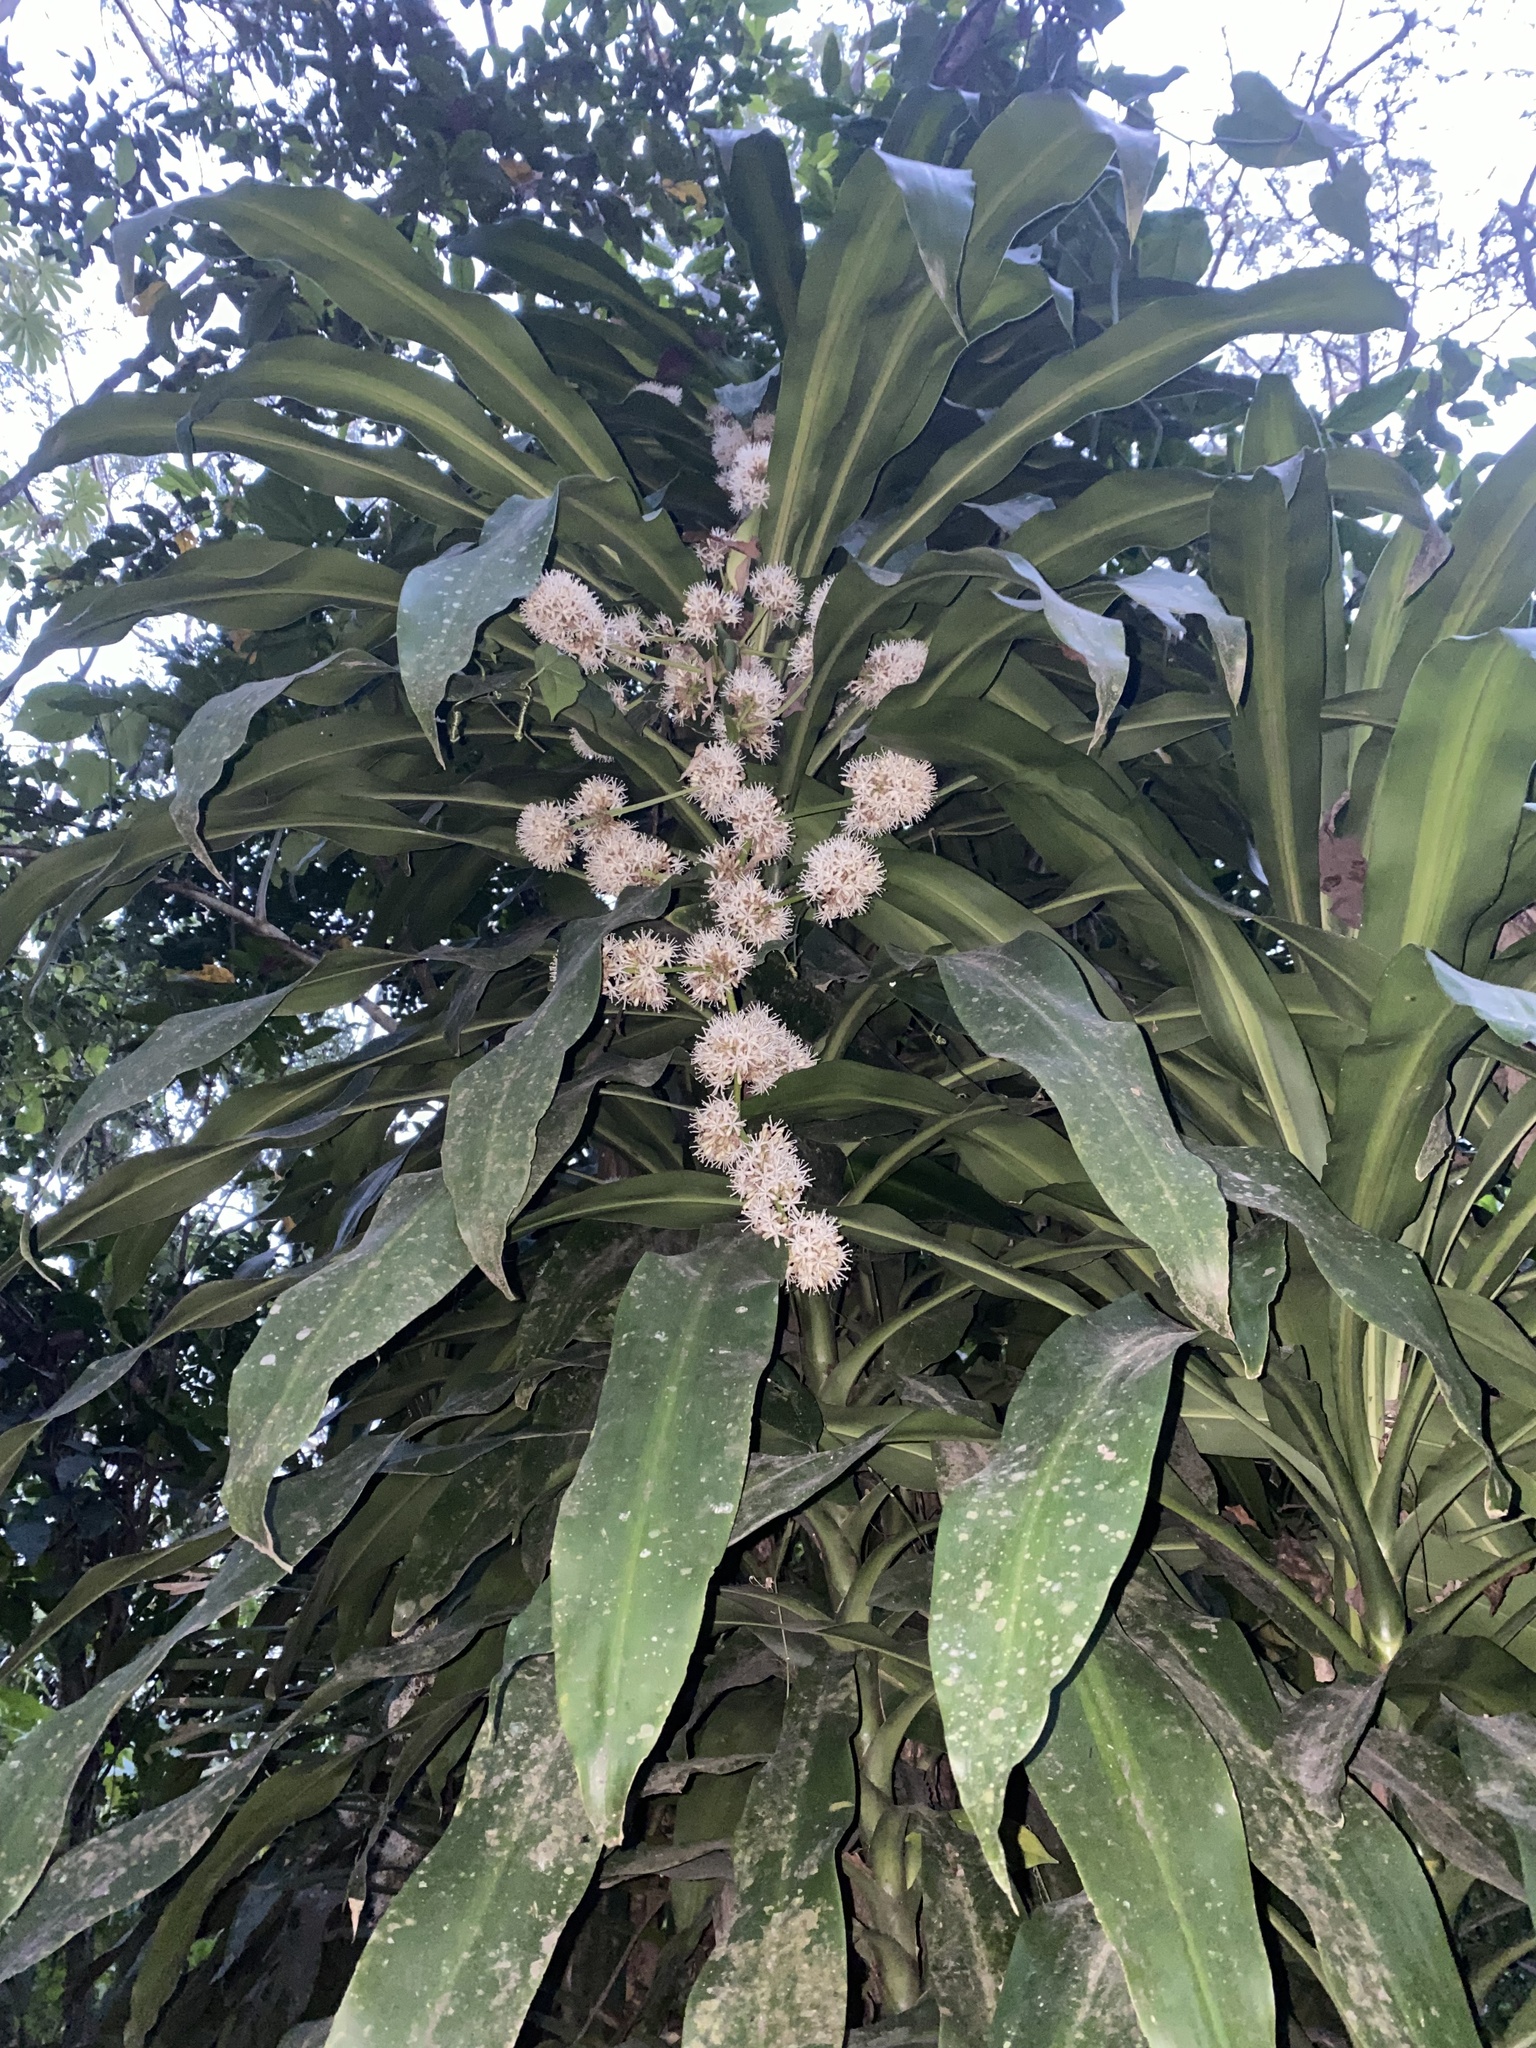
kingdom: Plantae
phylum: Tracheophyta
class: Liliopsida
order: Asparagales
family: Asparagaceae
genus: Dracaena
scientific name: Dracaena fragrans
